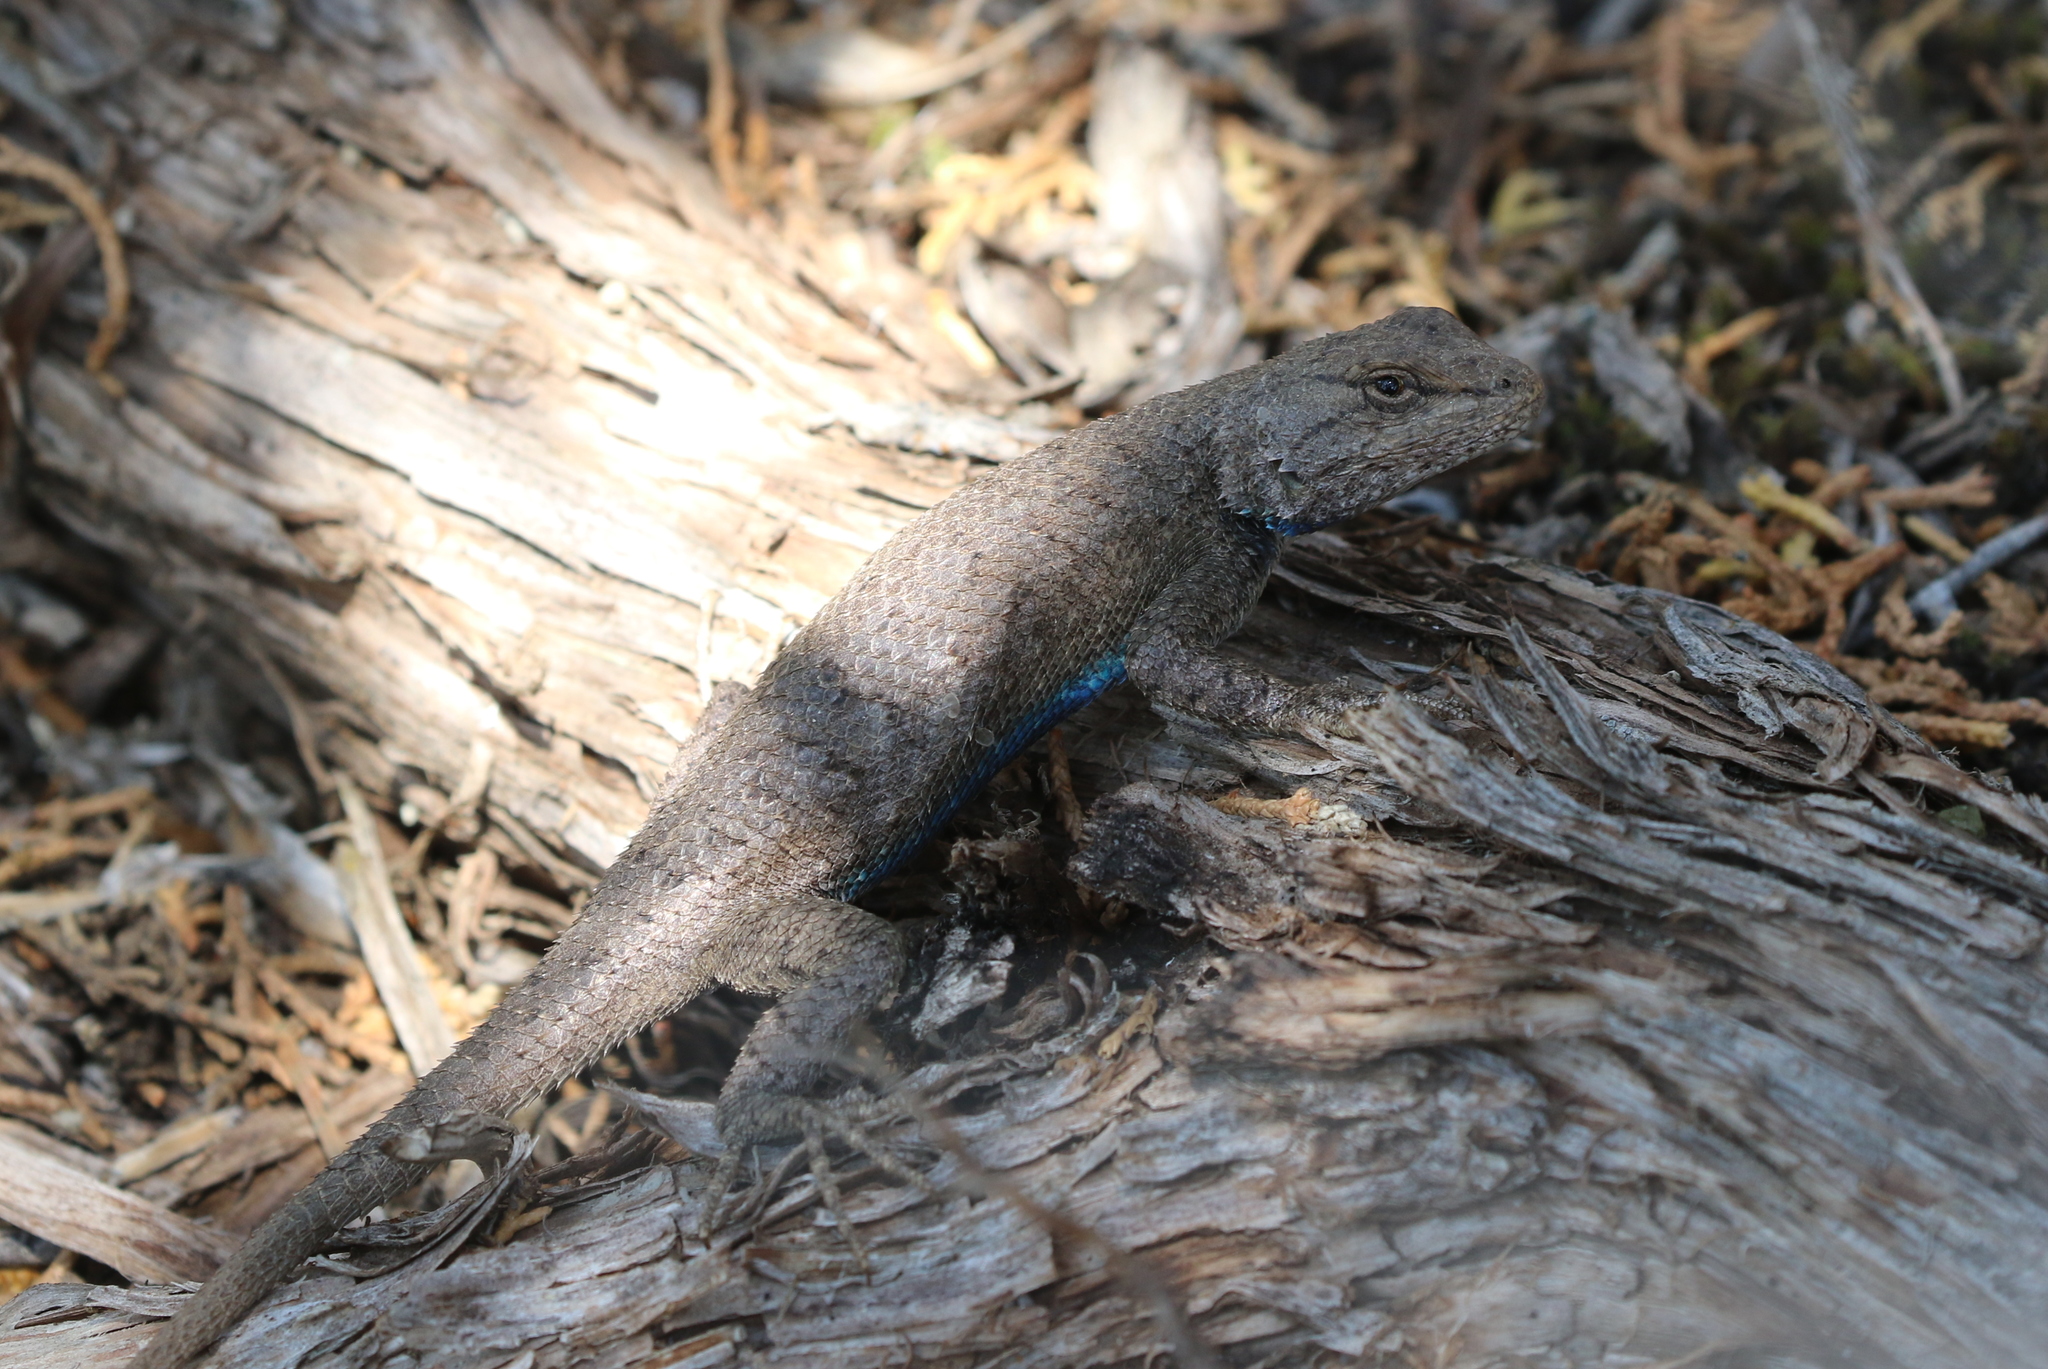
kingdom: Animalia
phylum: Chordata
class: Squamata
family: Phrynosomatidae
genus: Sceloporus
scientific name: Sceloporus tristichus
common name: Plateau fence lizard
